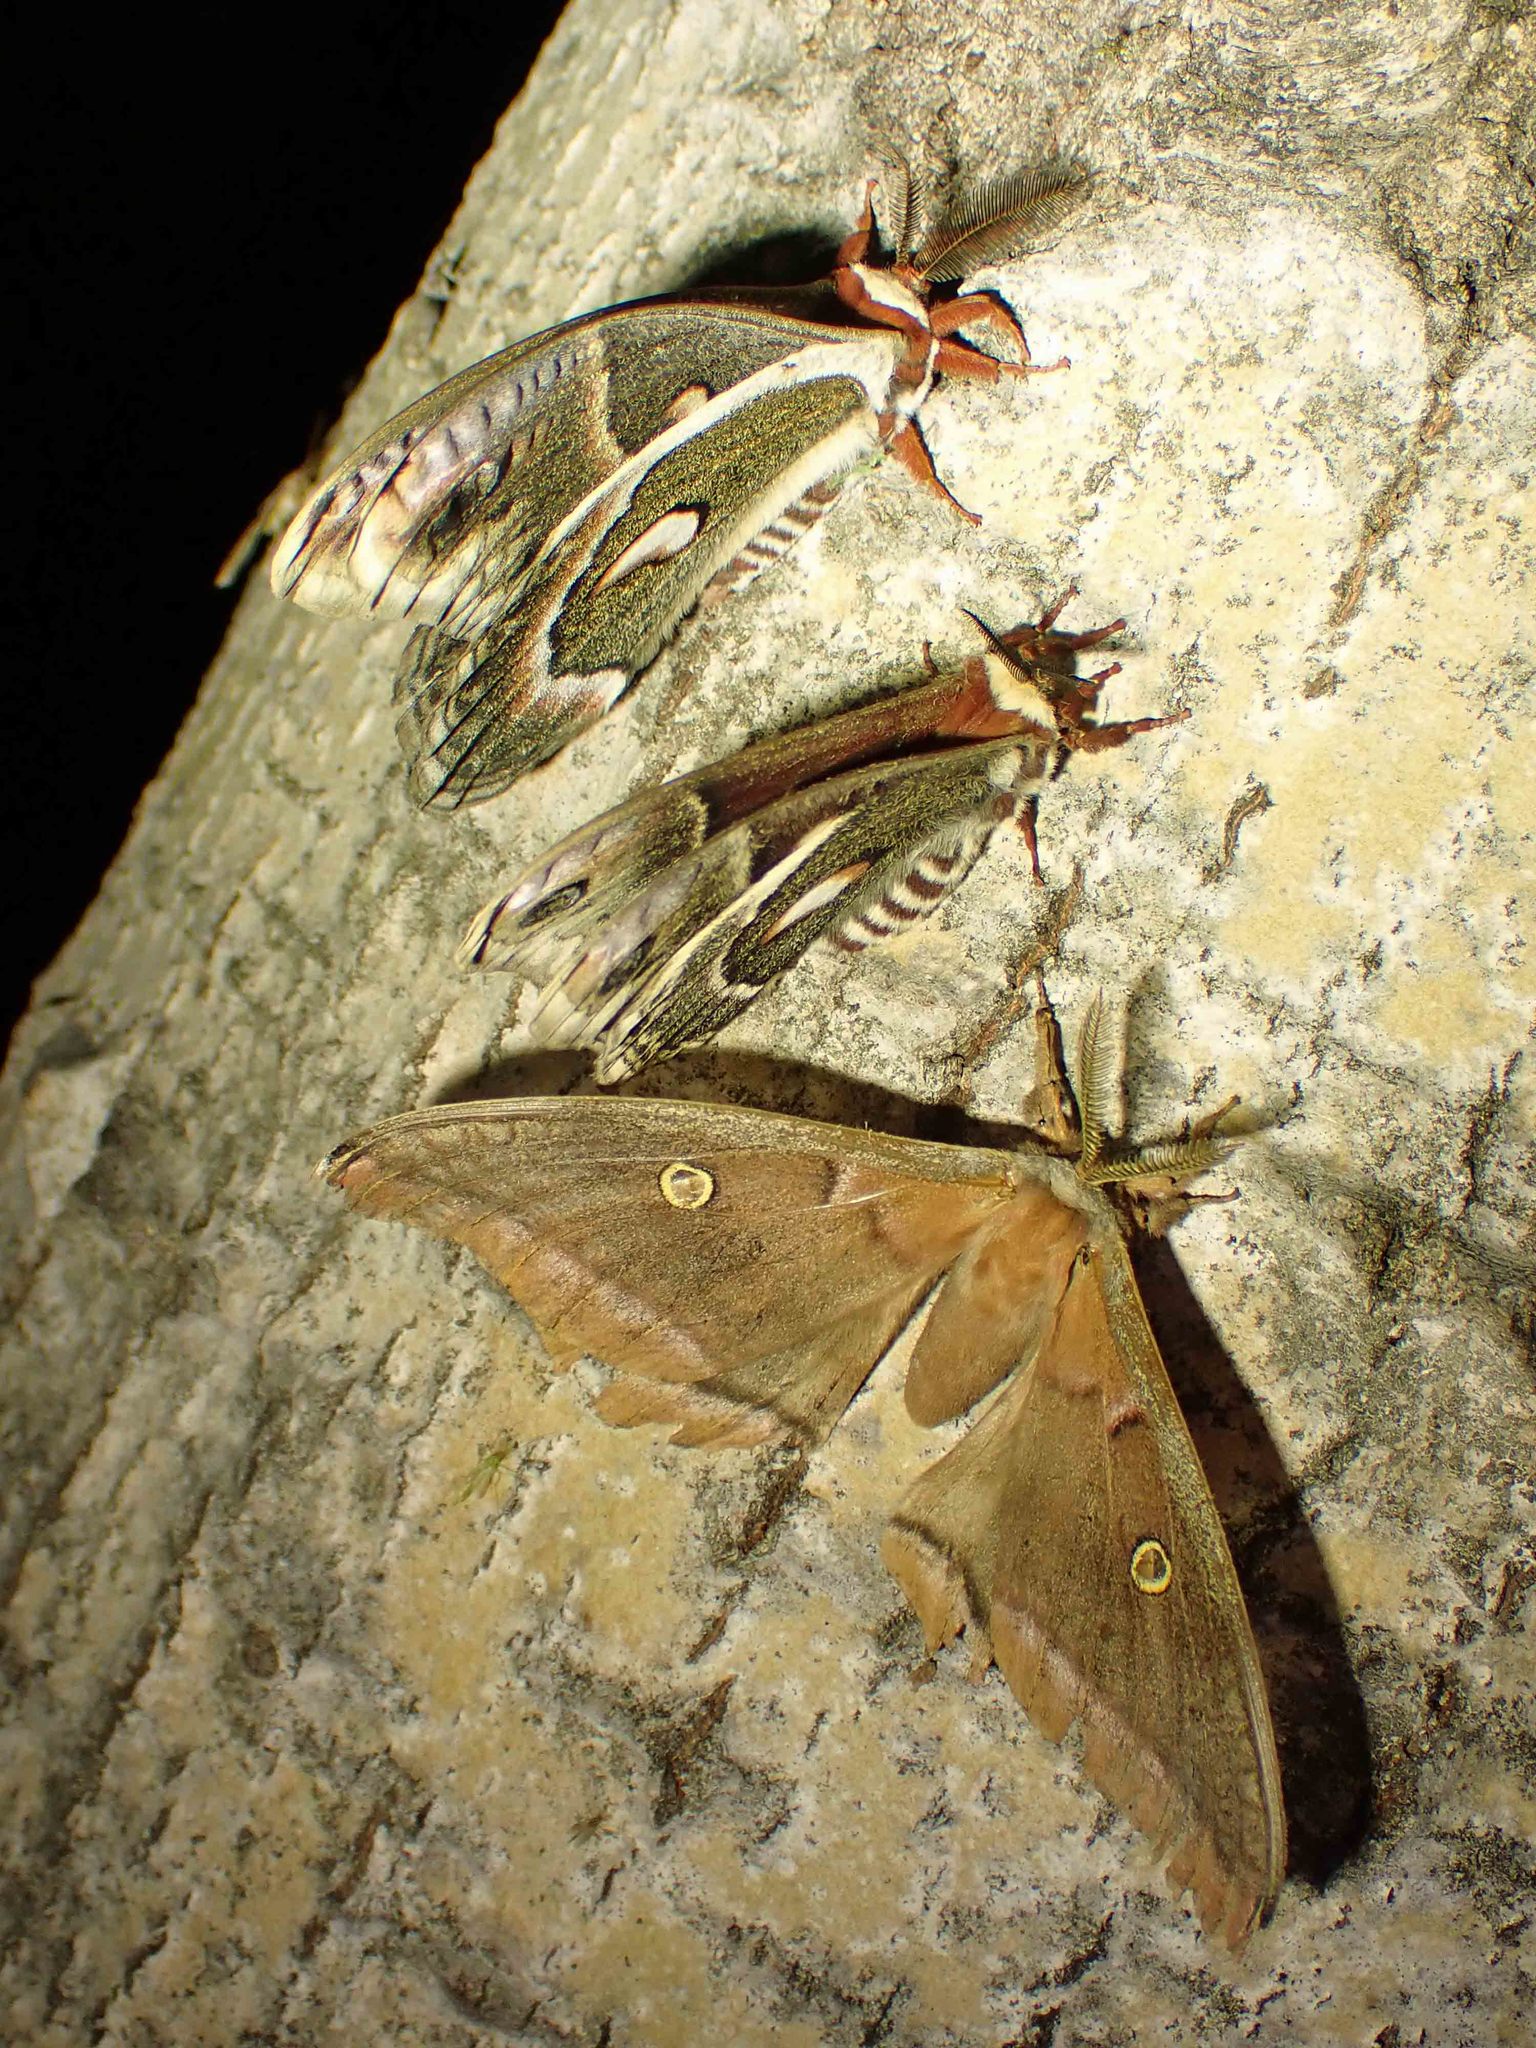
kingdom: Animalia
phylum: Arthropoda
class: Insecta
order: Lepidoptera
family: Saturniidae
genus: Antheraea
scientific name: Antheraea polyphemus
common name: Polyphemus moth
